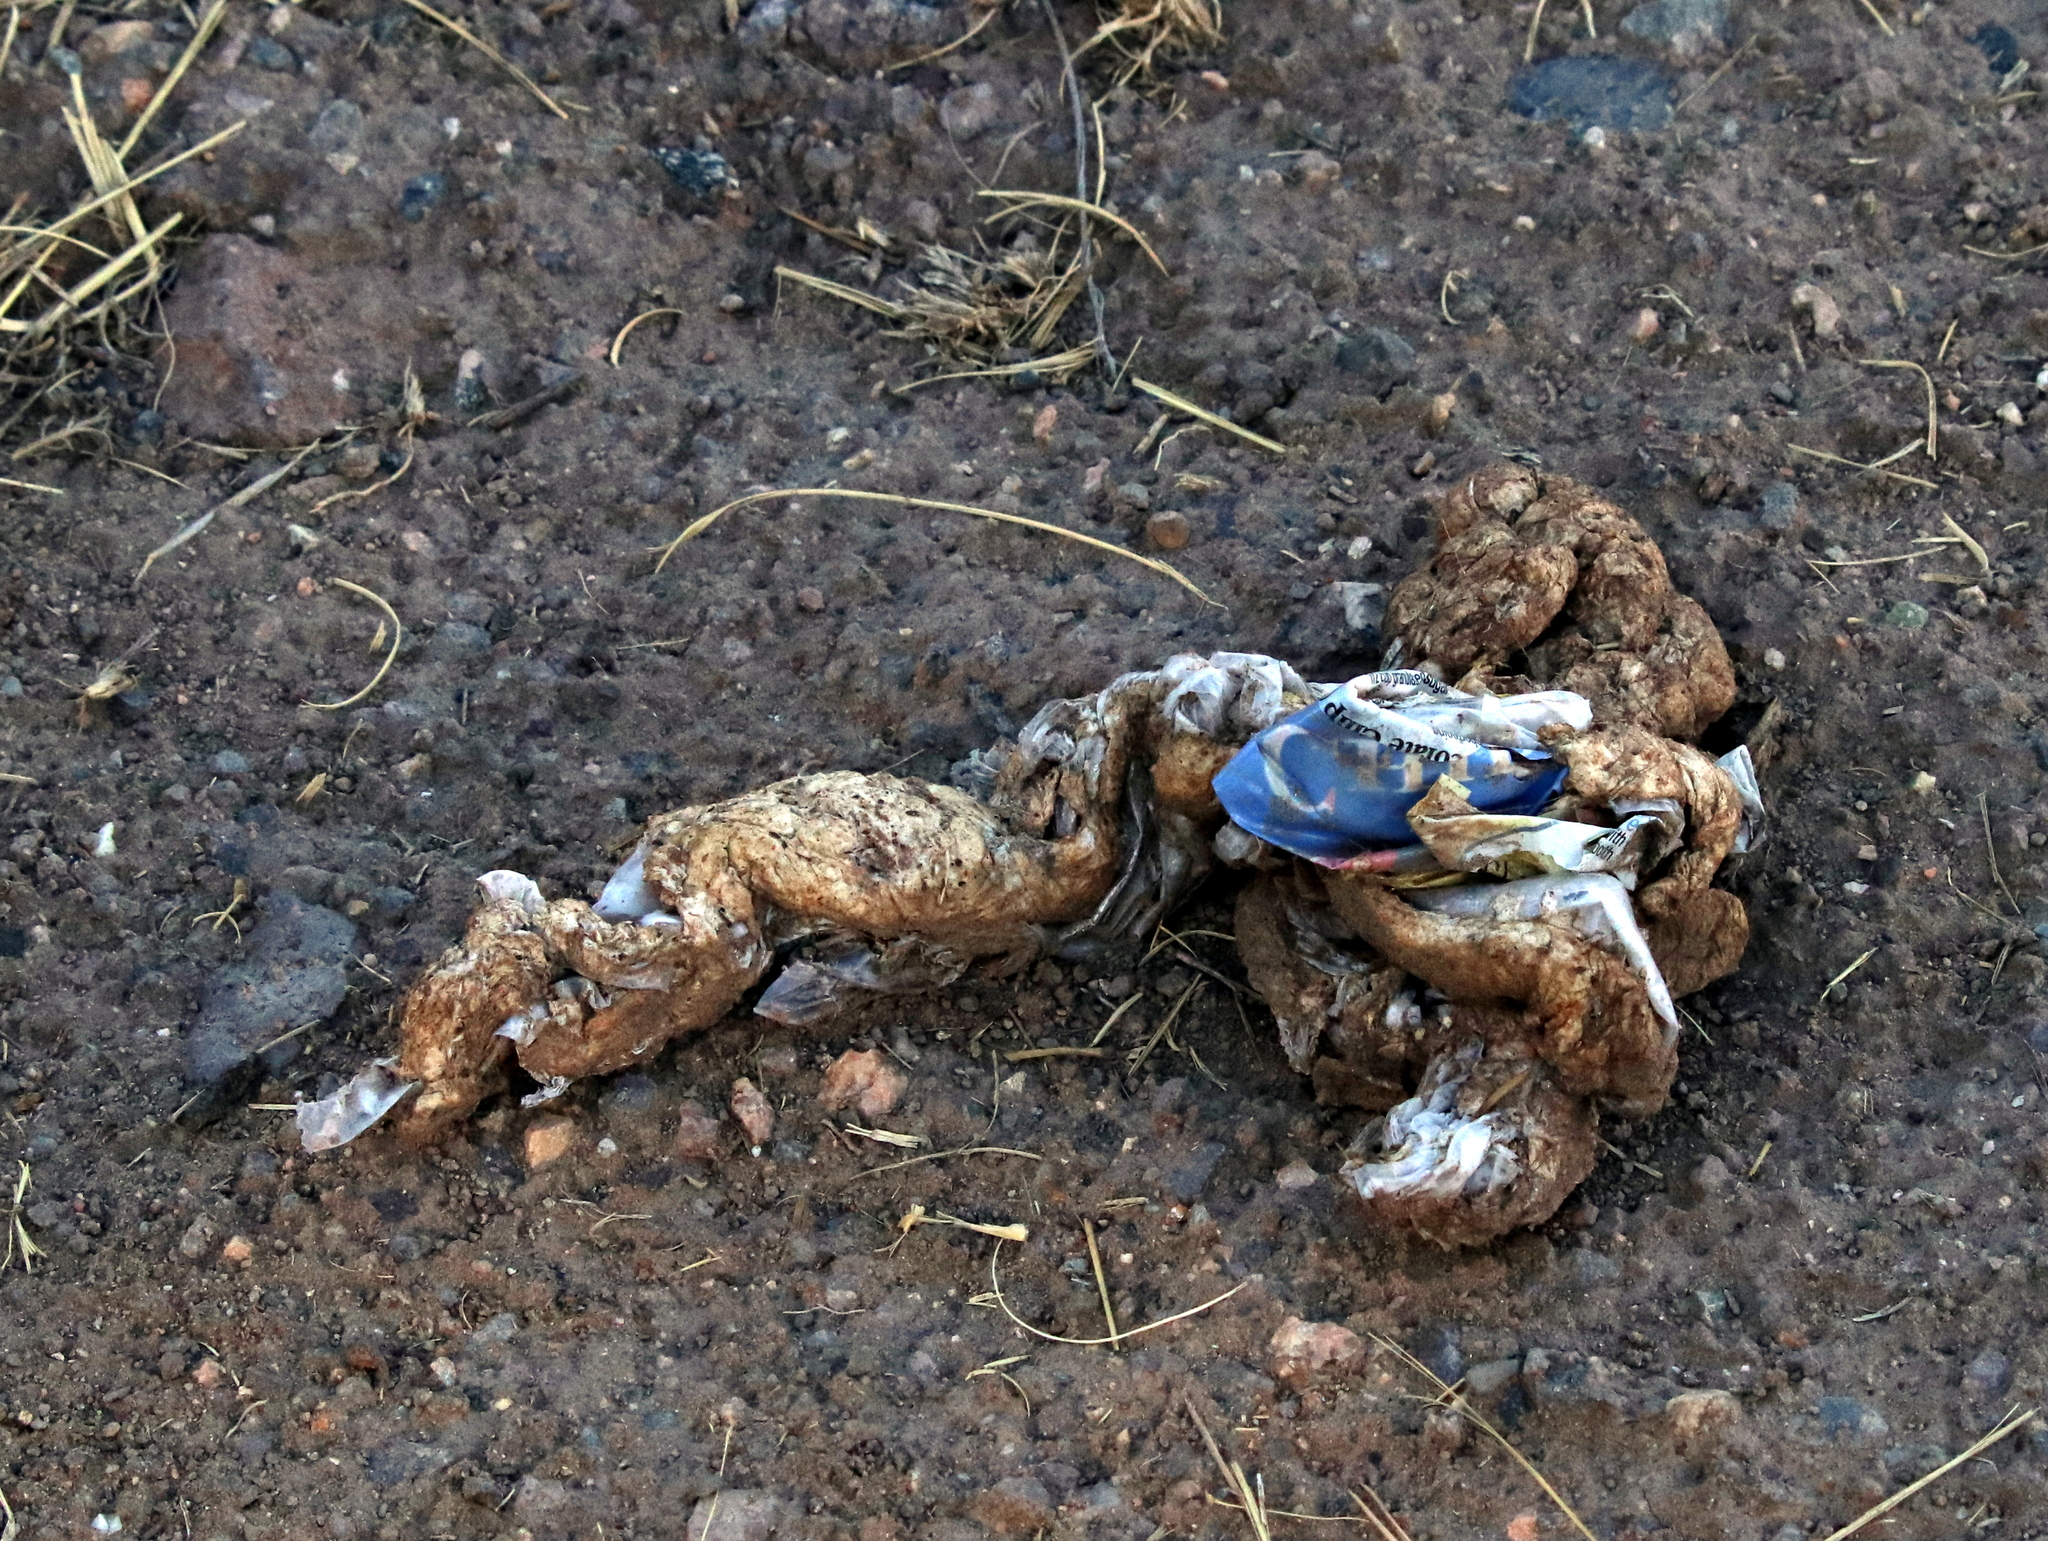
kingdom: Animalia
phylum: Chordata
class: Mammalia
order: Carnivora
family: Ursidae
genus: Ursus
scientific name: Ursus americanus
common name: American black bear
